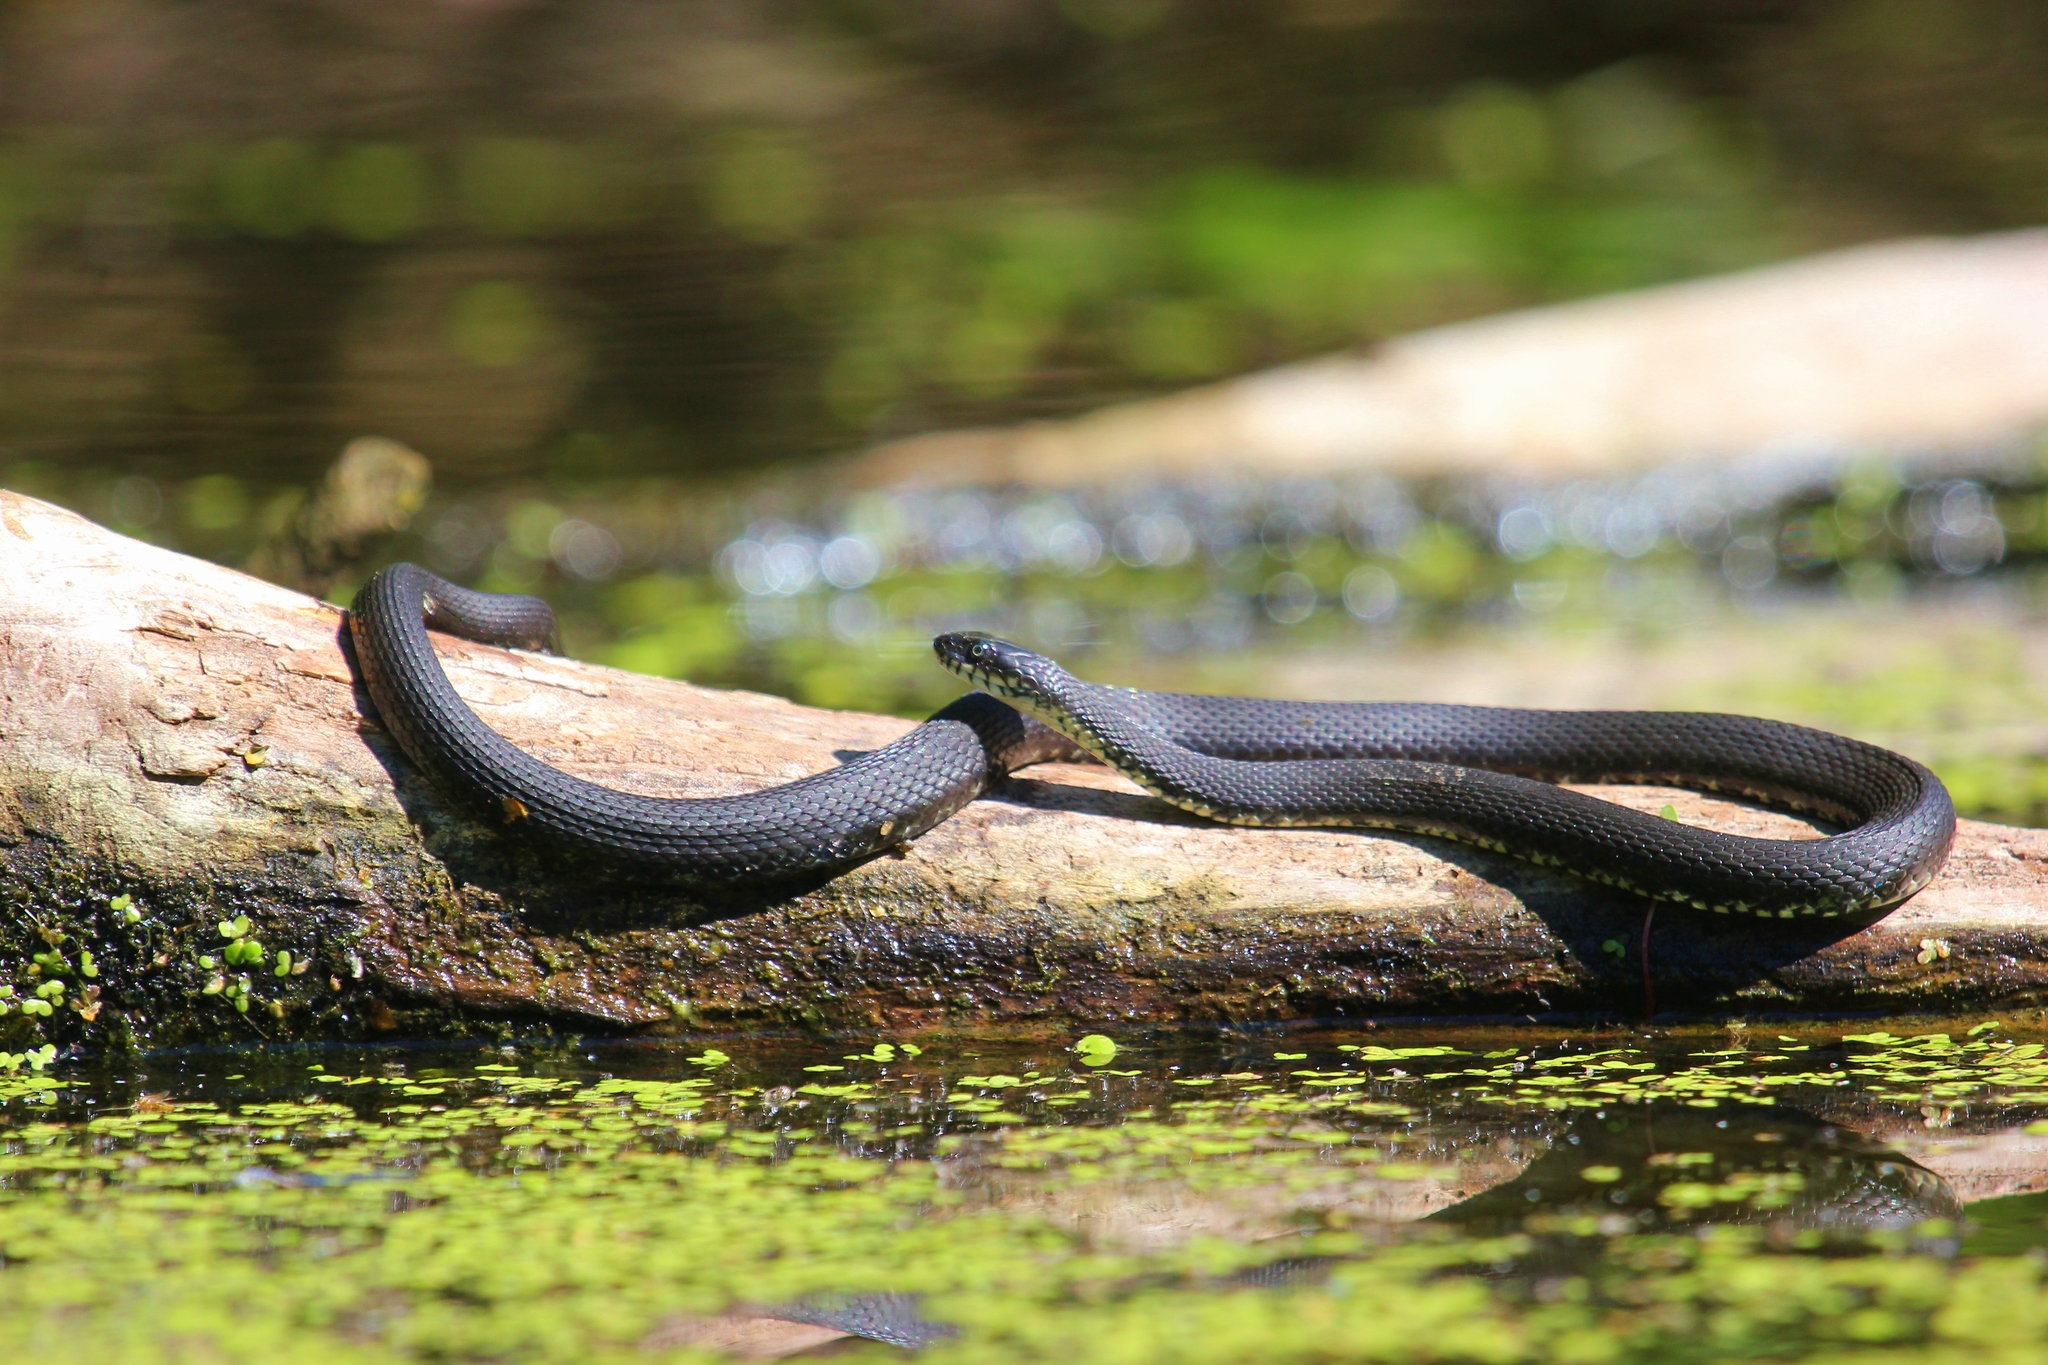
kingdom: Animalia
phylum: Chordata
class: Squamata
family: Colubridae
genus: Natrix
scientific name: Natrix tessellata
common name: Dice snake
